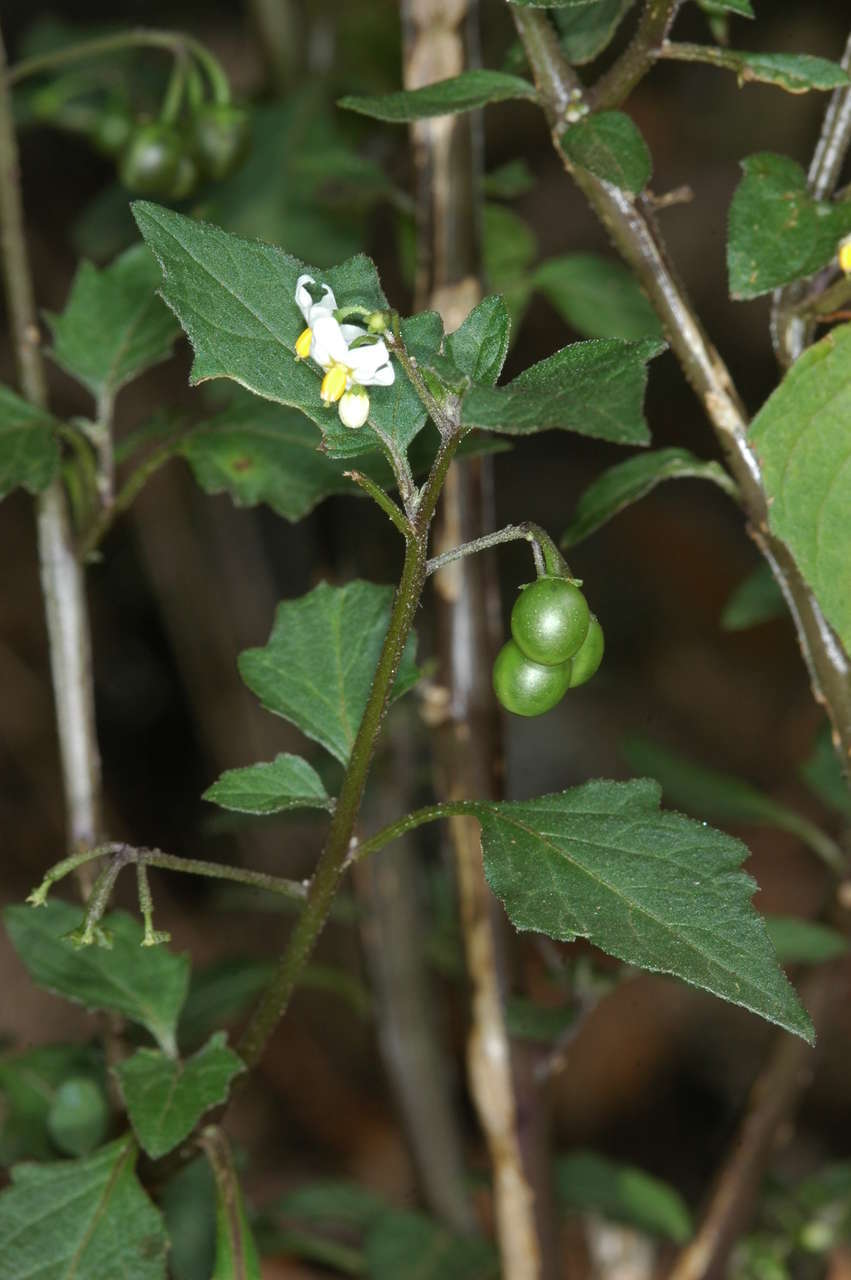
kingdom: Plantae
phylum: Tracheophyta
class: Magnoliopsida
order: Solanales
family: Solanaceae
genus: Solanum
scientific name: Solanum nigrum
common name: Black nightshade
